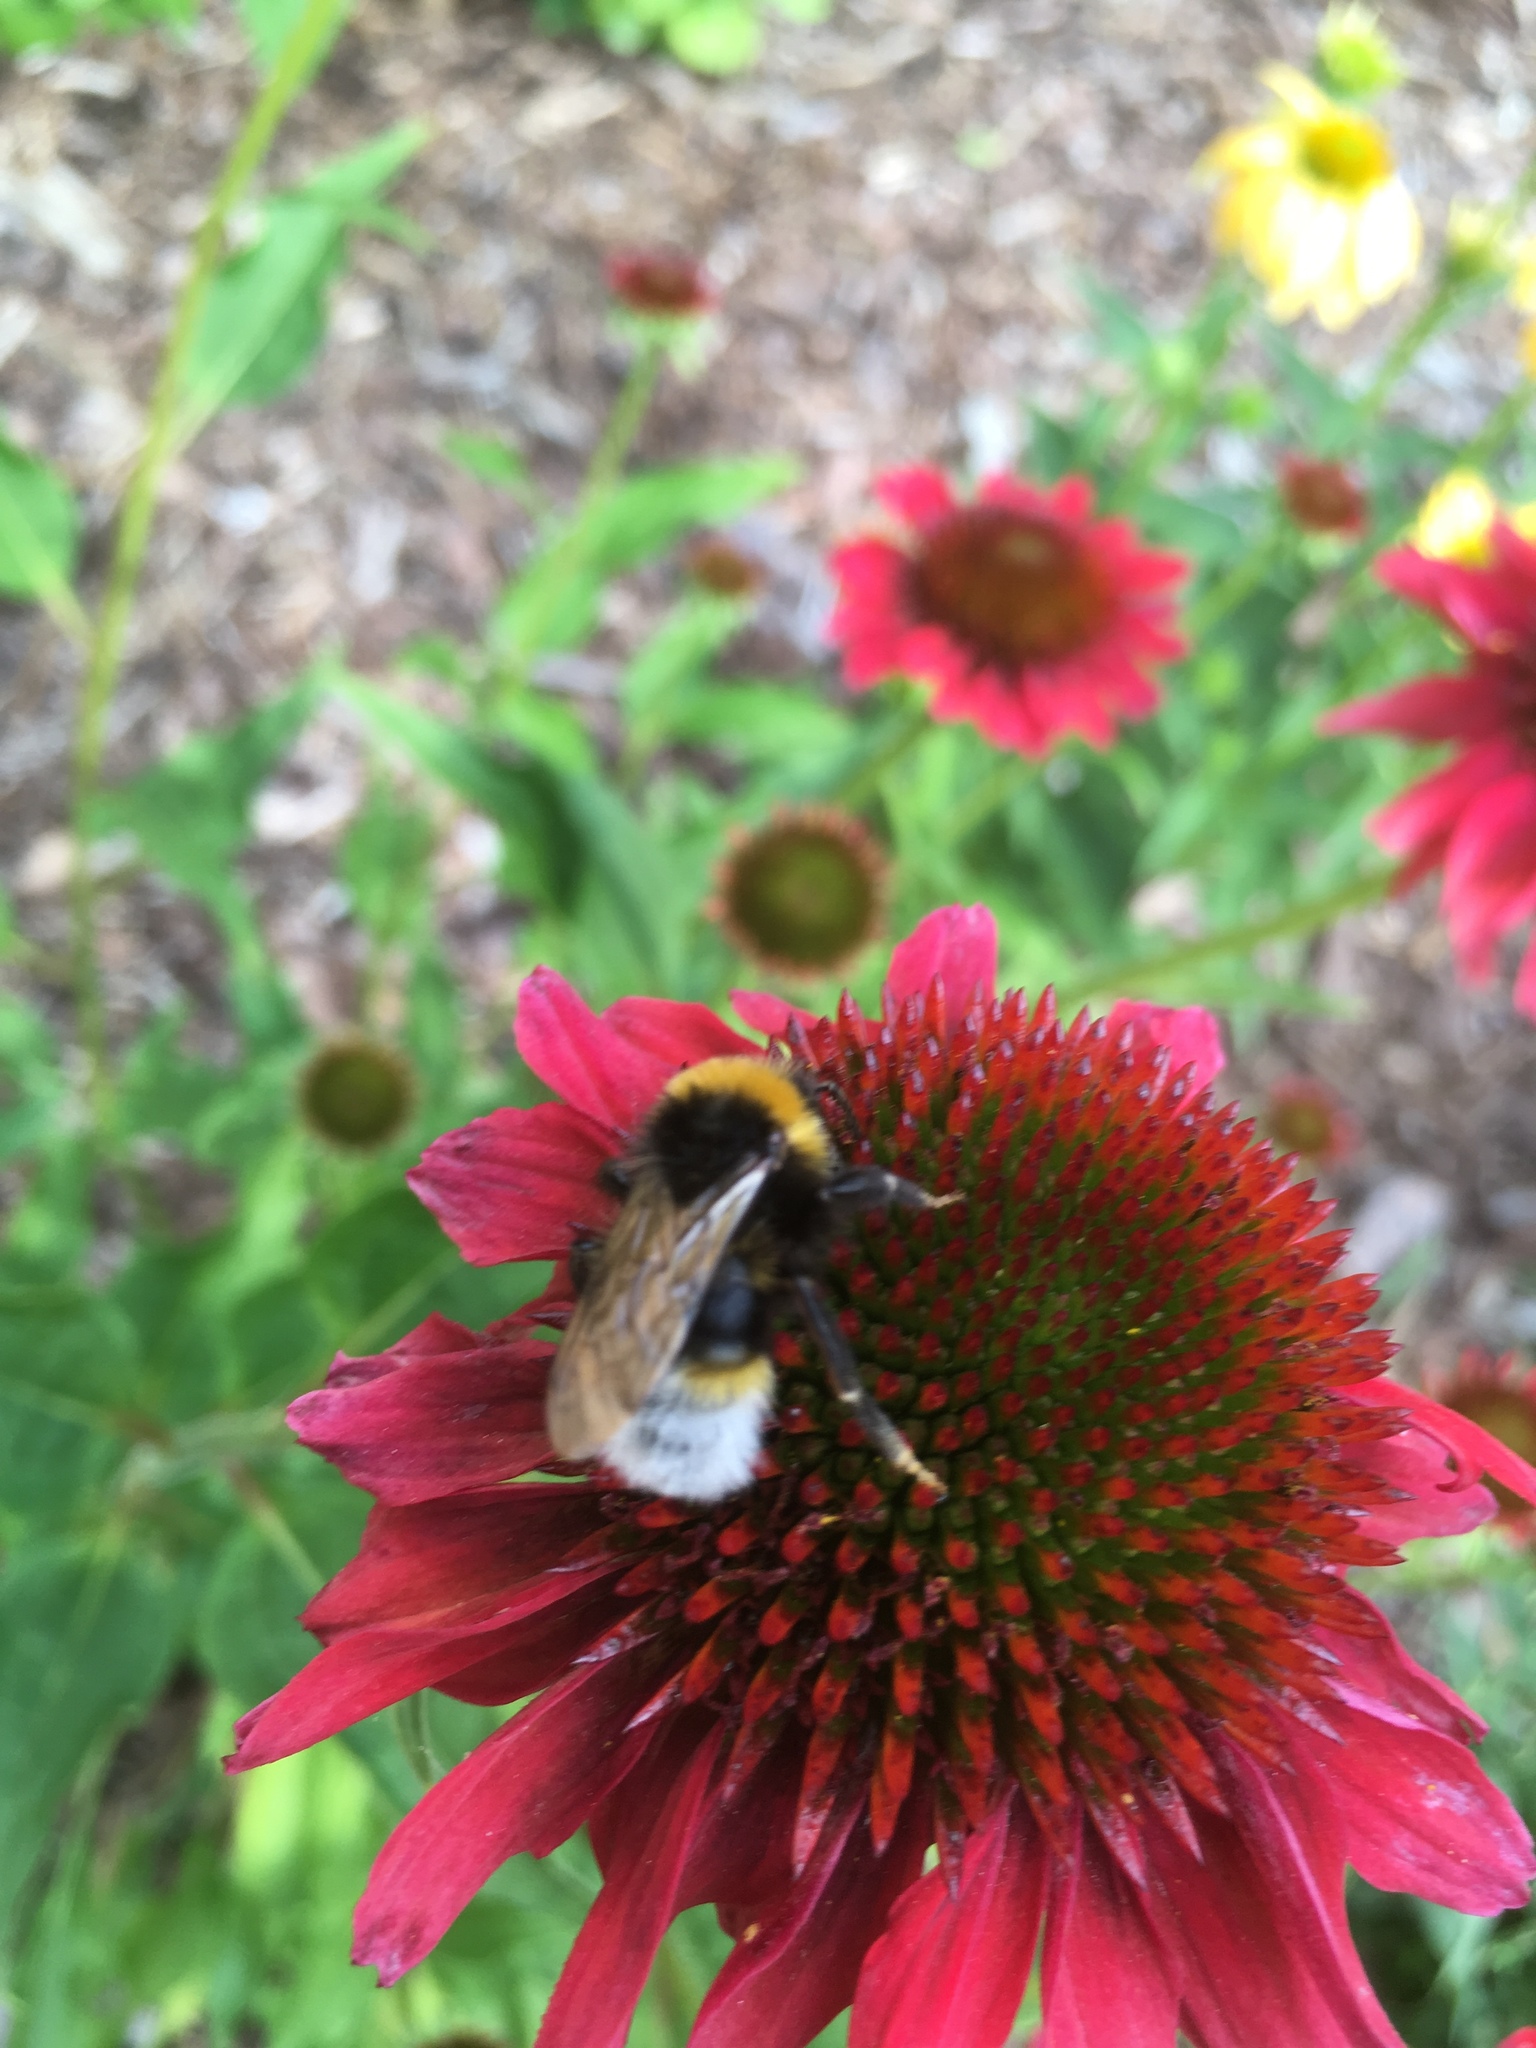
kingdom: Animalia
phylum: Arthropoda
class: Insecta
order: Hymenoptera
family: Apidae
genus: Bombus
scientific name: Bombus vestalis
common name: Vestal cuckoo bee
